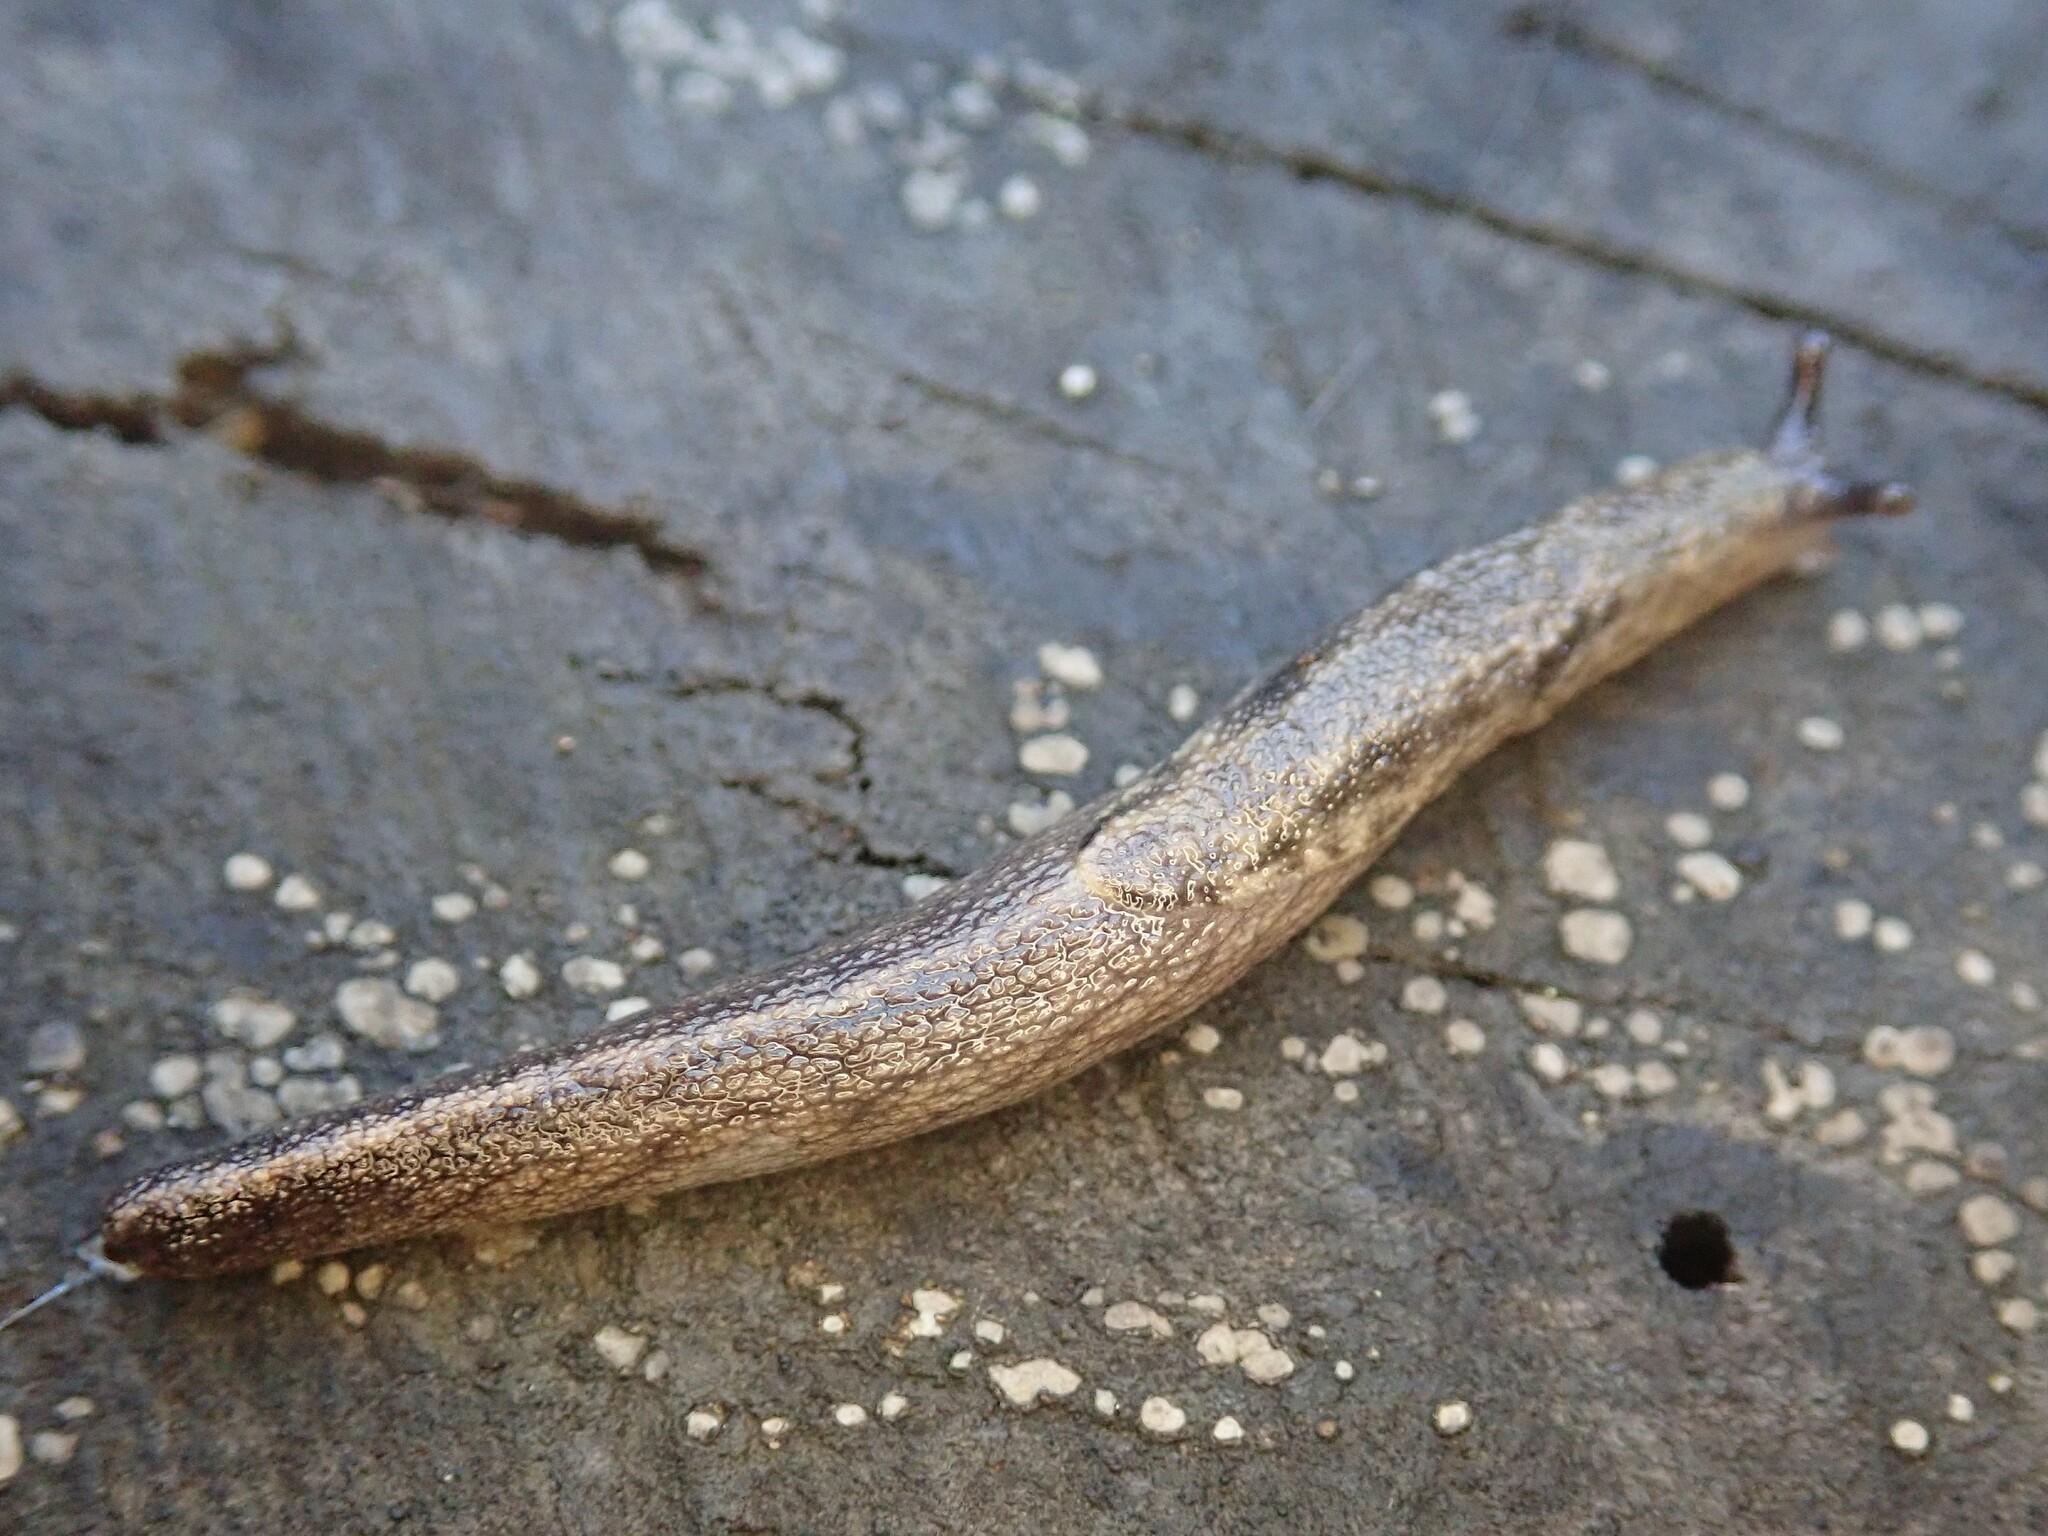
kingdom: Animalia
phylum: Mollusca
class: Gastropoda
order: Stylommatophora
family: Ariolimacidae
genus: Prophysaon
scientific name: Prophysaon andersonii
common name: Reticulate taildropper
